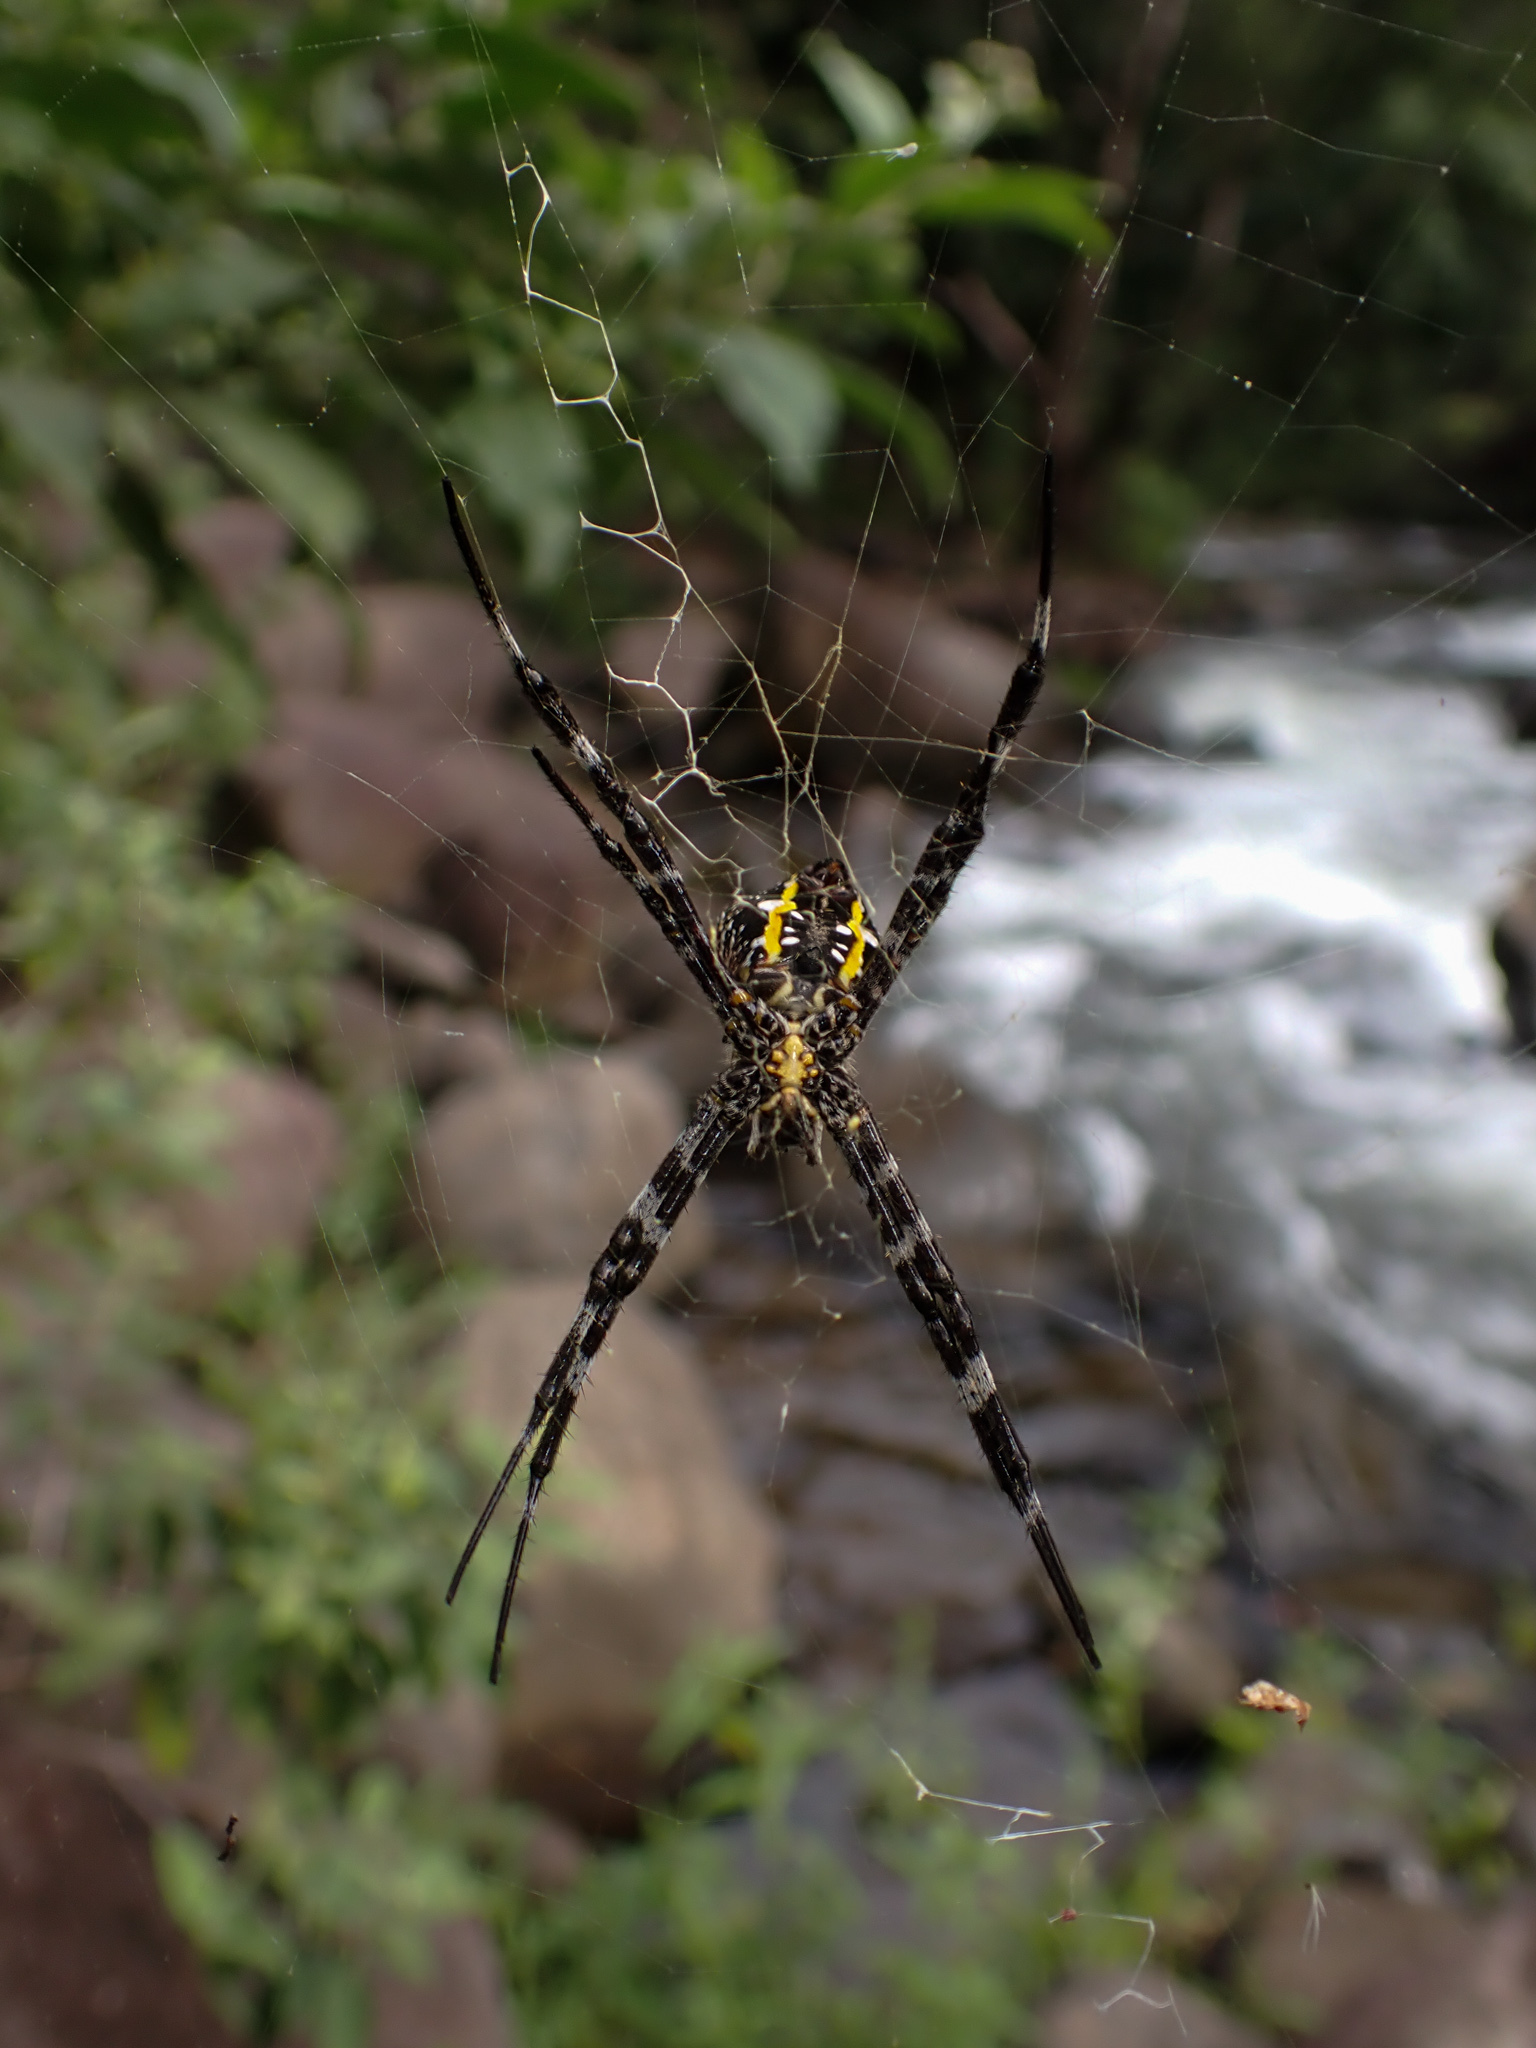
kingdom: Animalia
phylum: Arthropoda
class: Arachnida
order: Araneae
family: Araneidae
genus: Argiope
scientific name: Argiope appensa
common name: Garden spider
